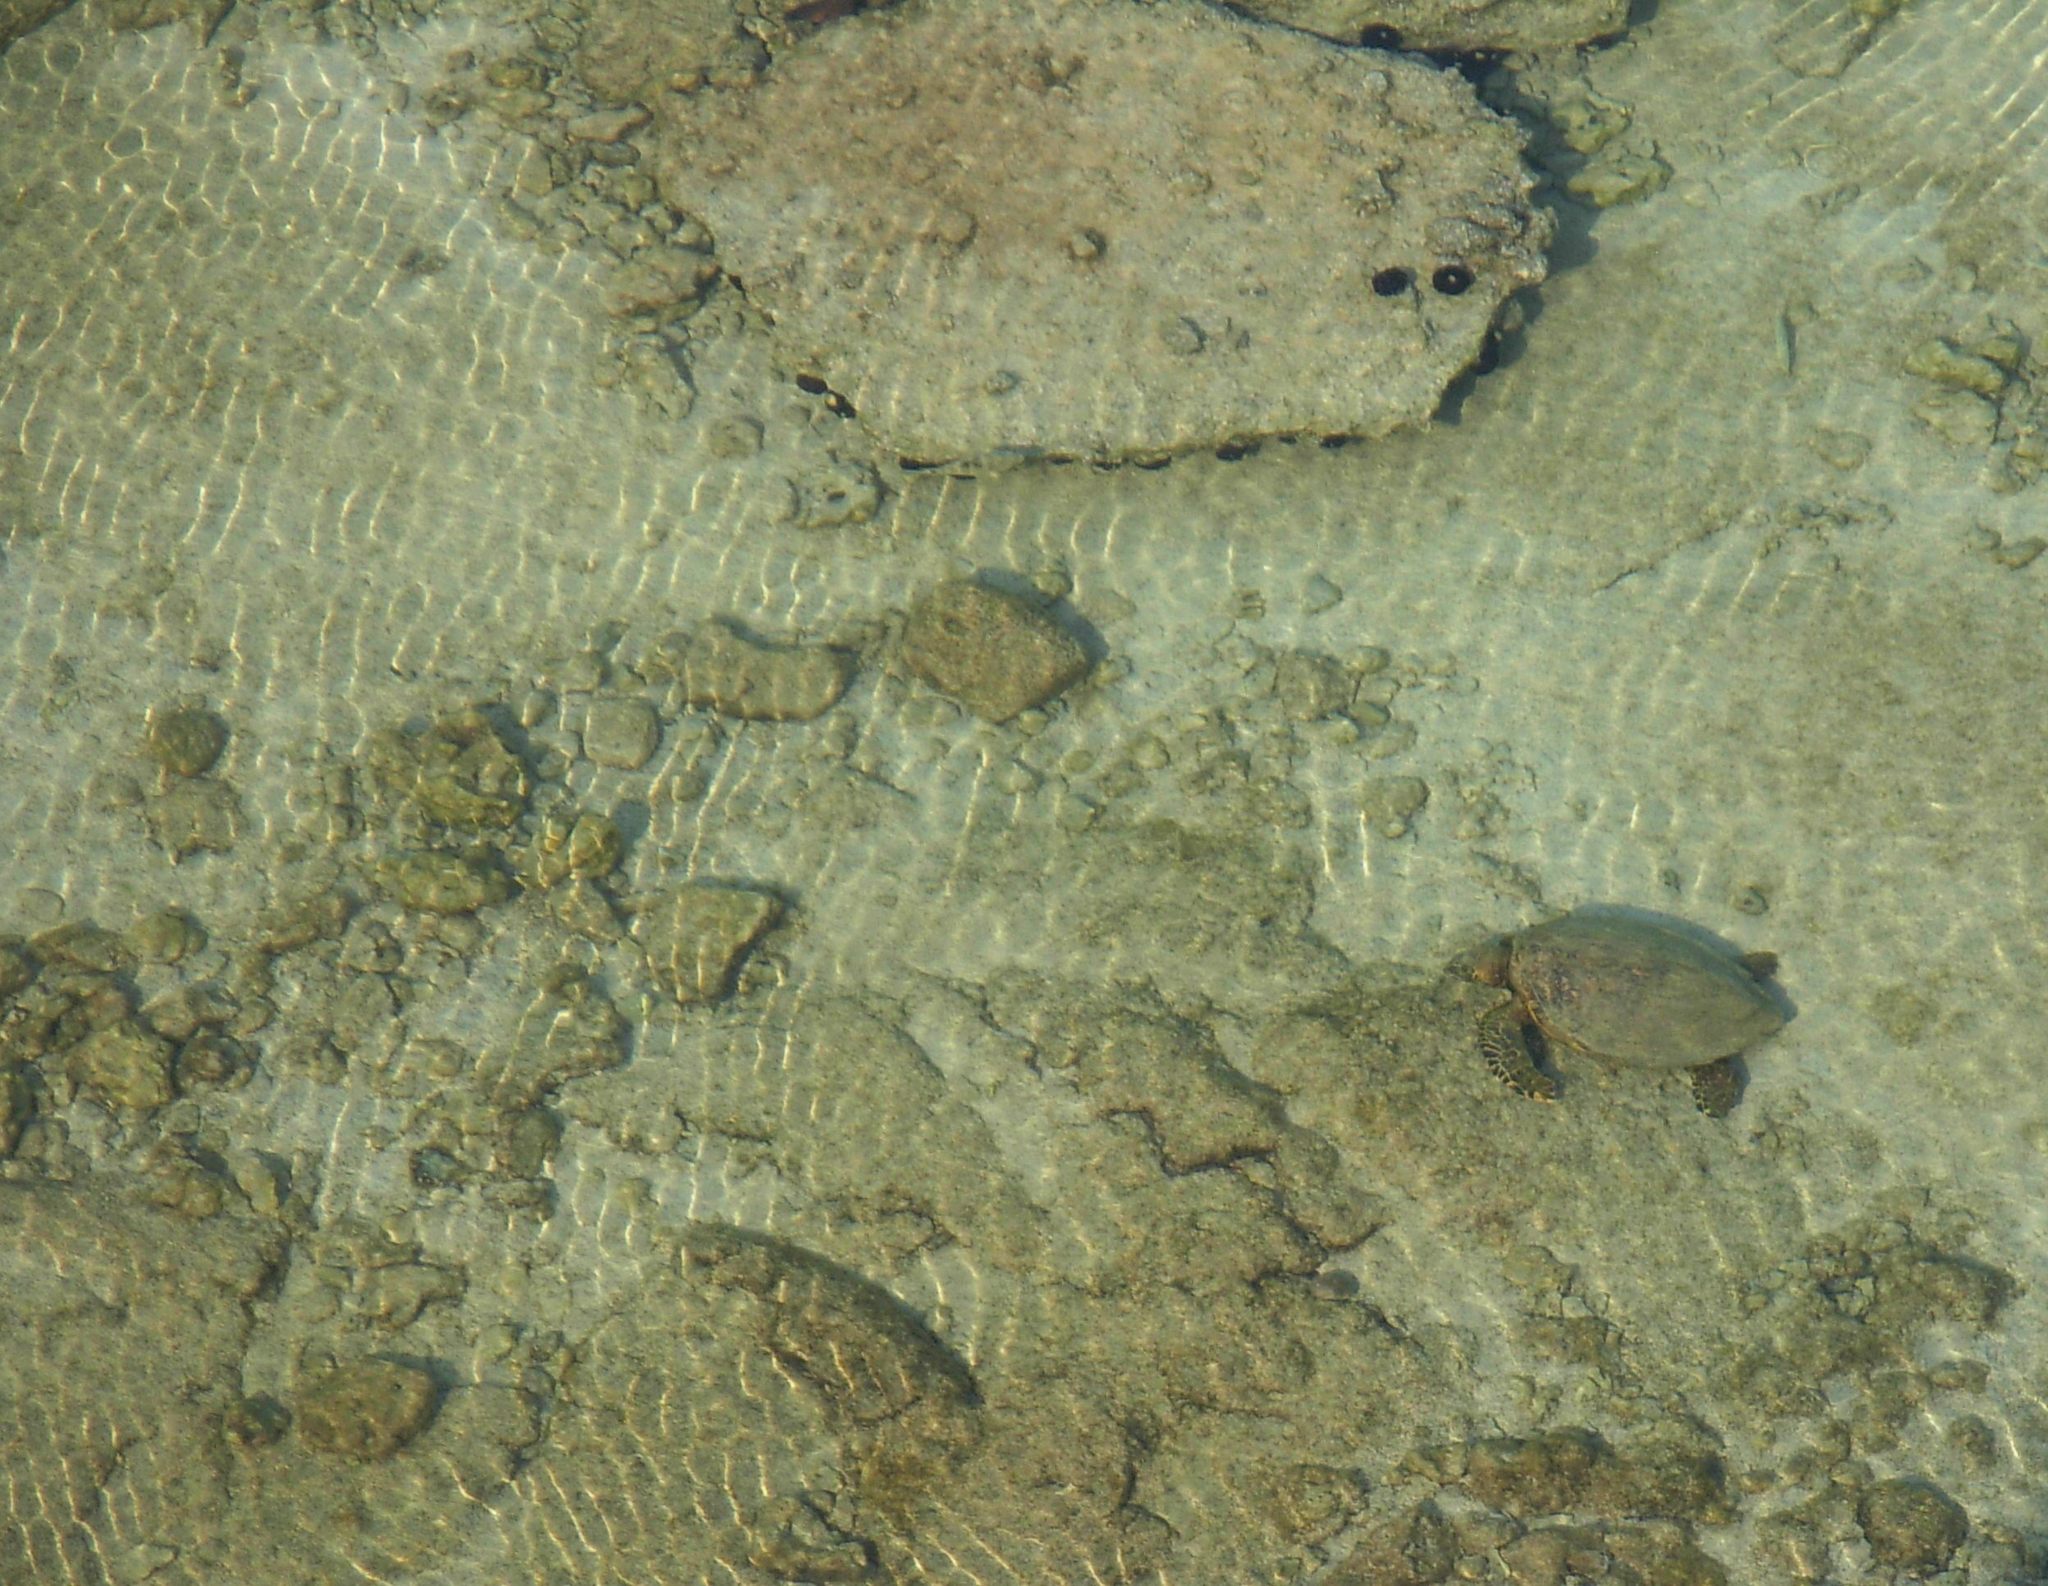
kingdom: Animalia
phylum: Chordata
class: Testudines
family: Cheloniidae
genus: Chelonia
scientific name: Chelonia mydas
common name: Green turtle
